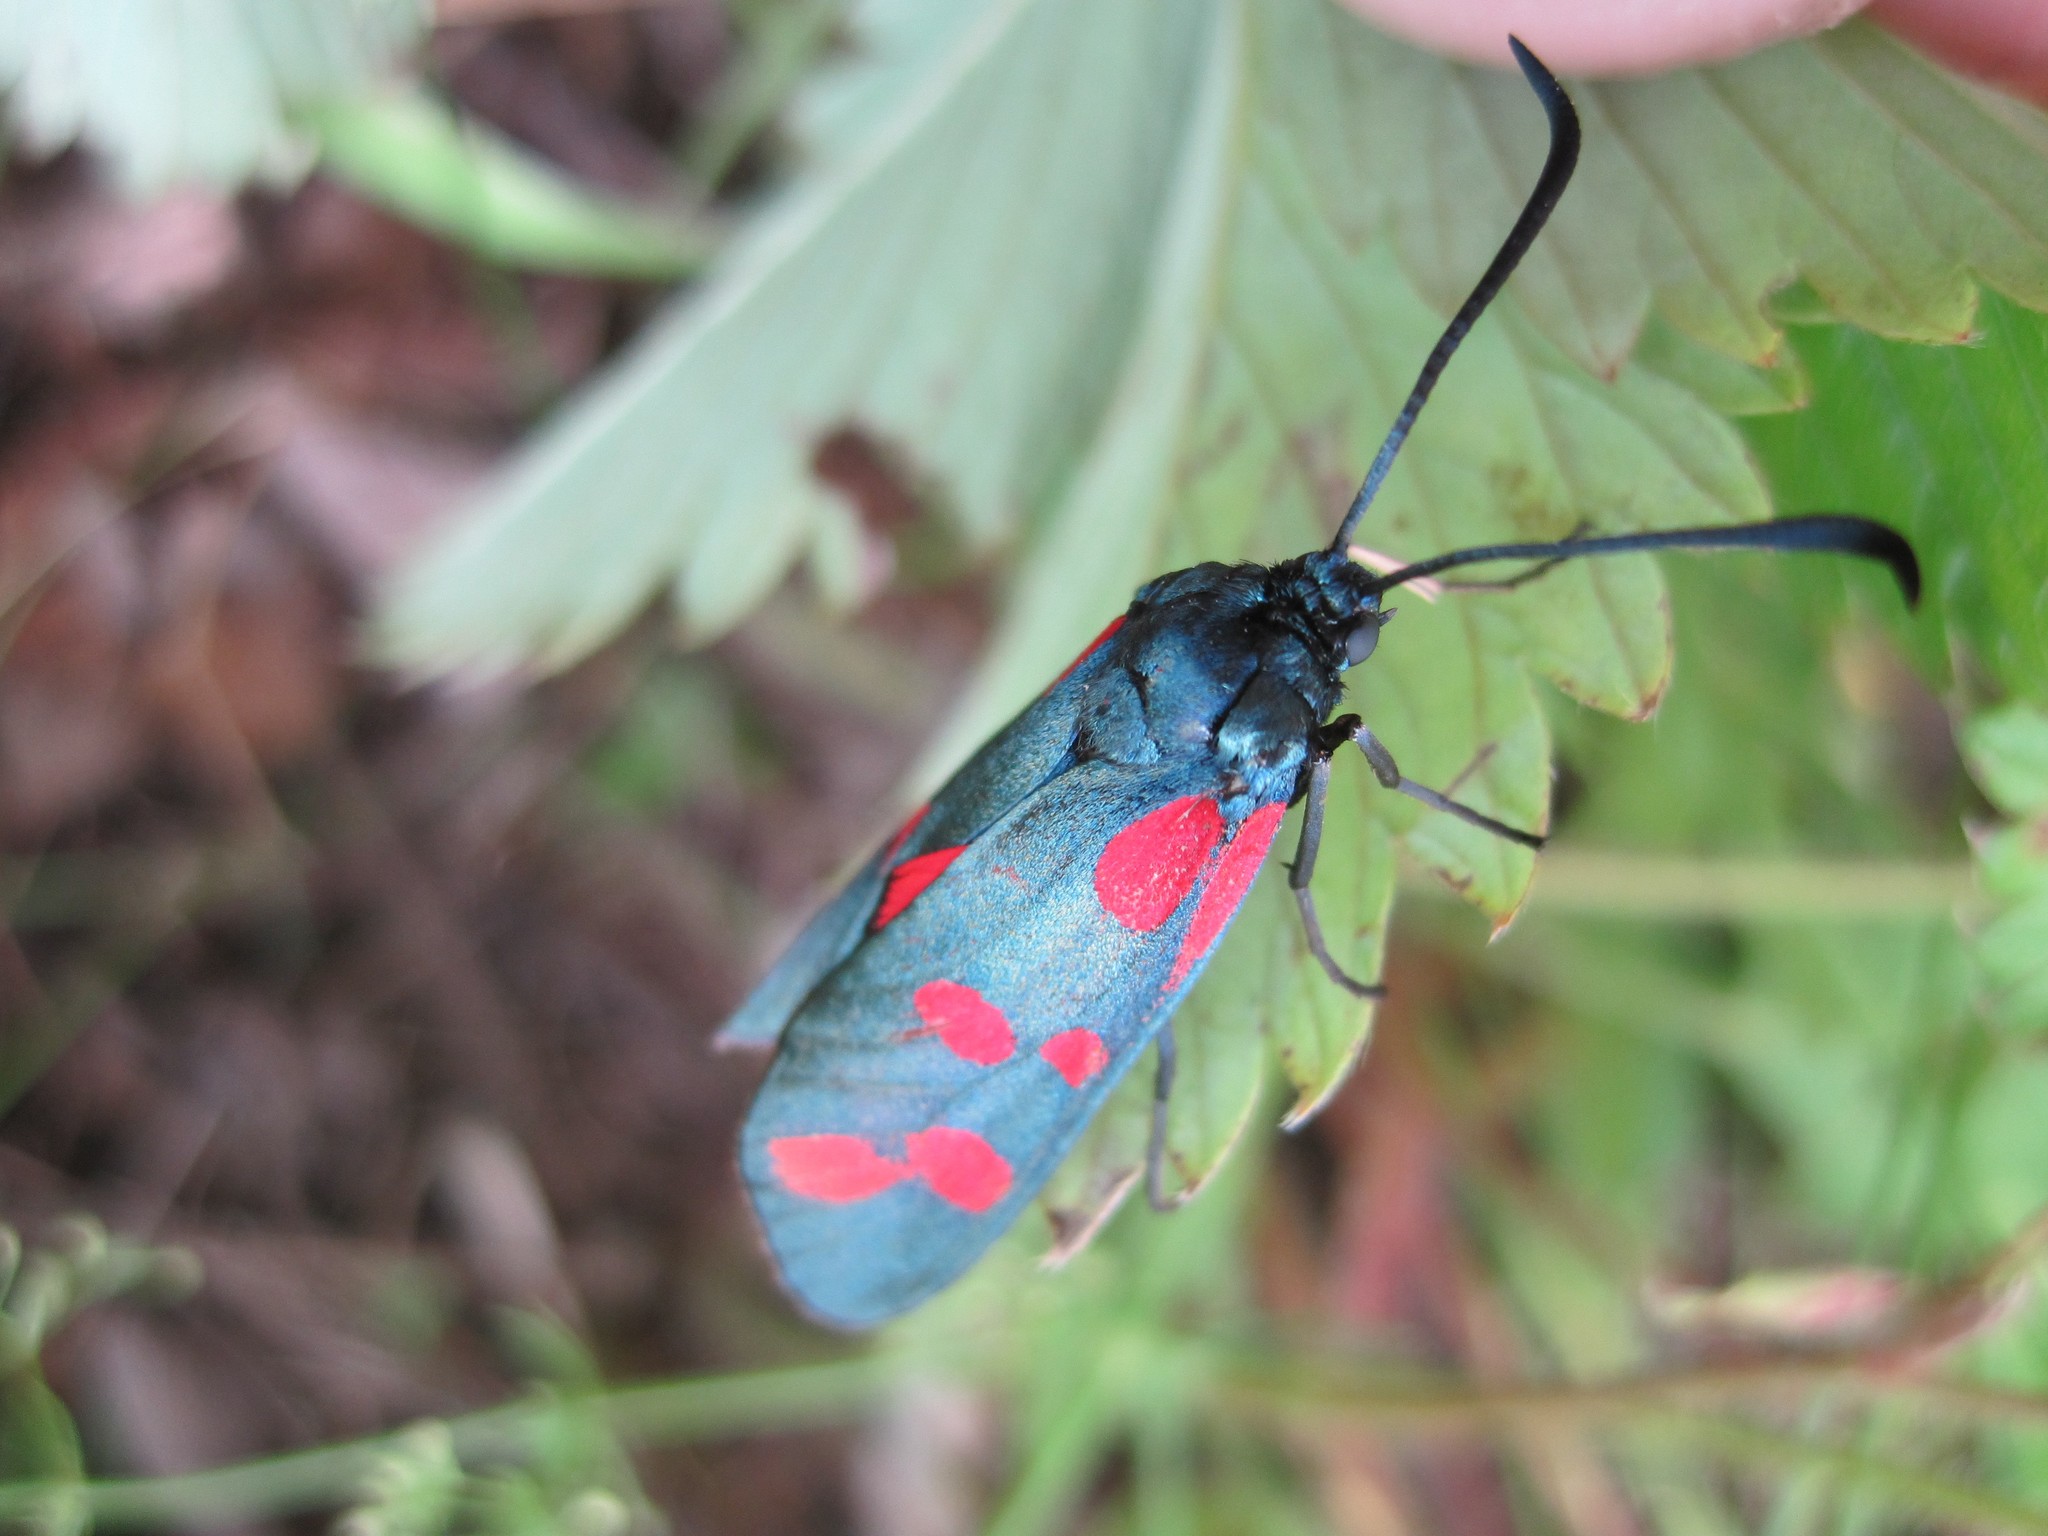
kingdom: Animalia
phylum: Arthropoda
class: Insecta
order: Lepidoptera
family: Zygaenidae
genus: Zygaena
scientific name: Zygaena filipendulae
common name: Six-spot burnet
